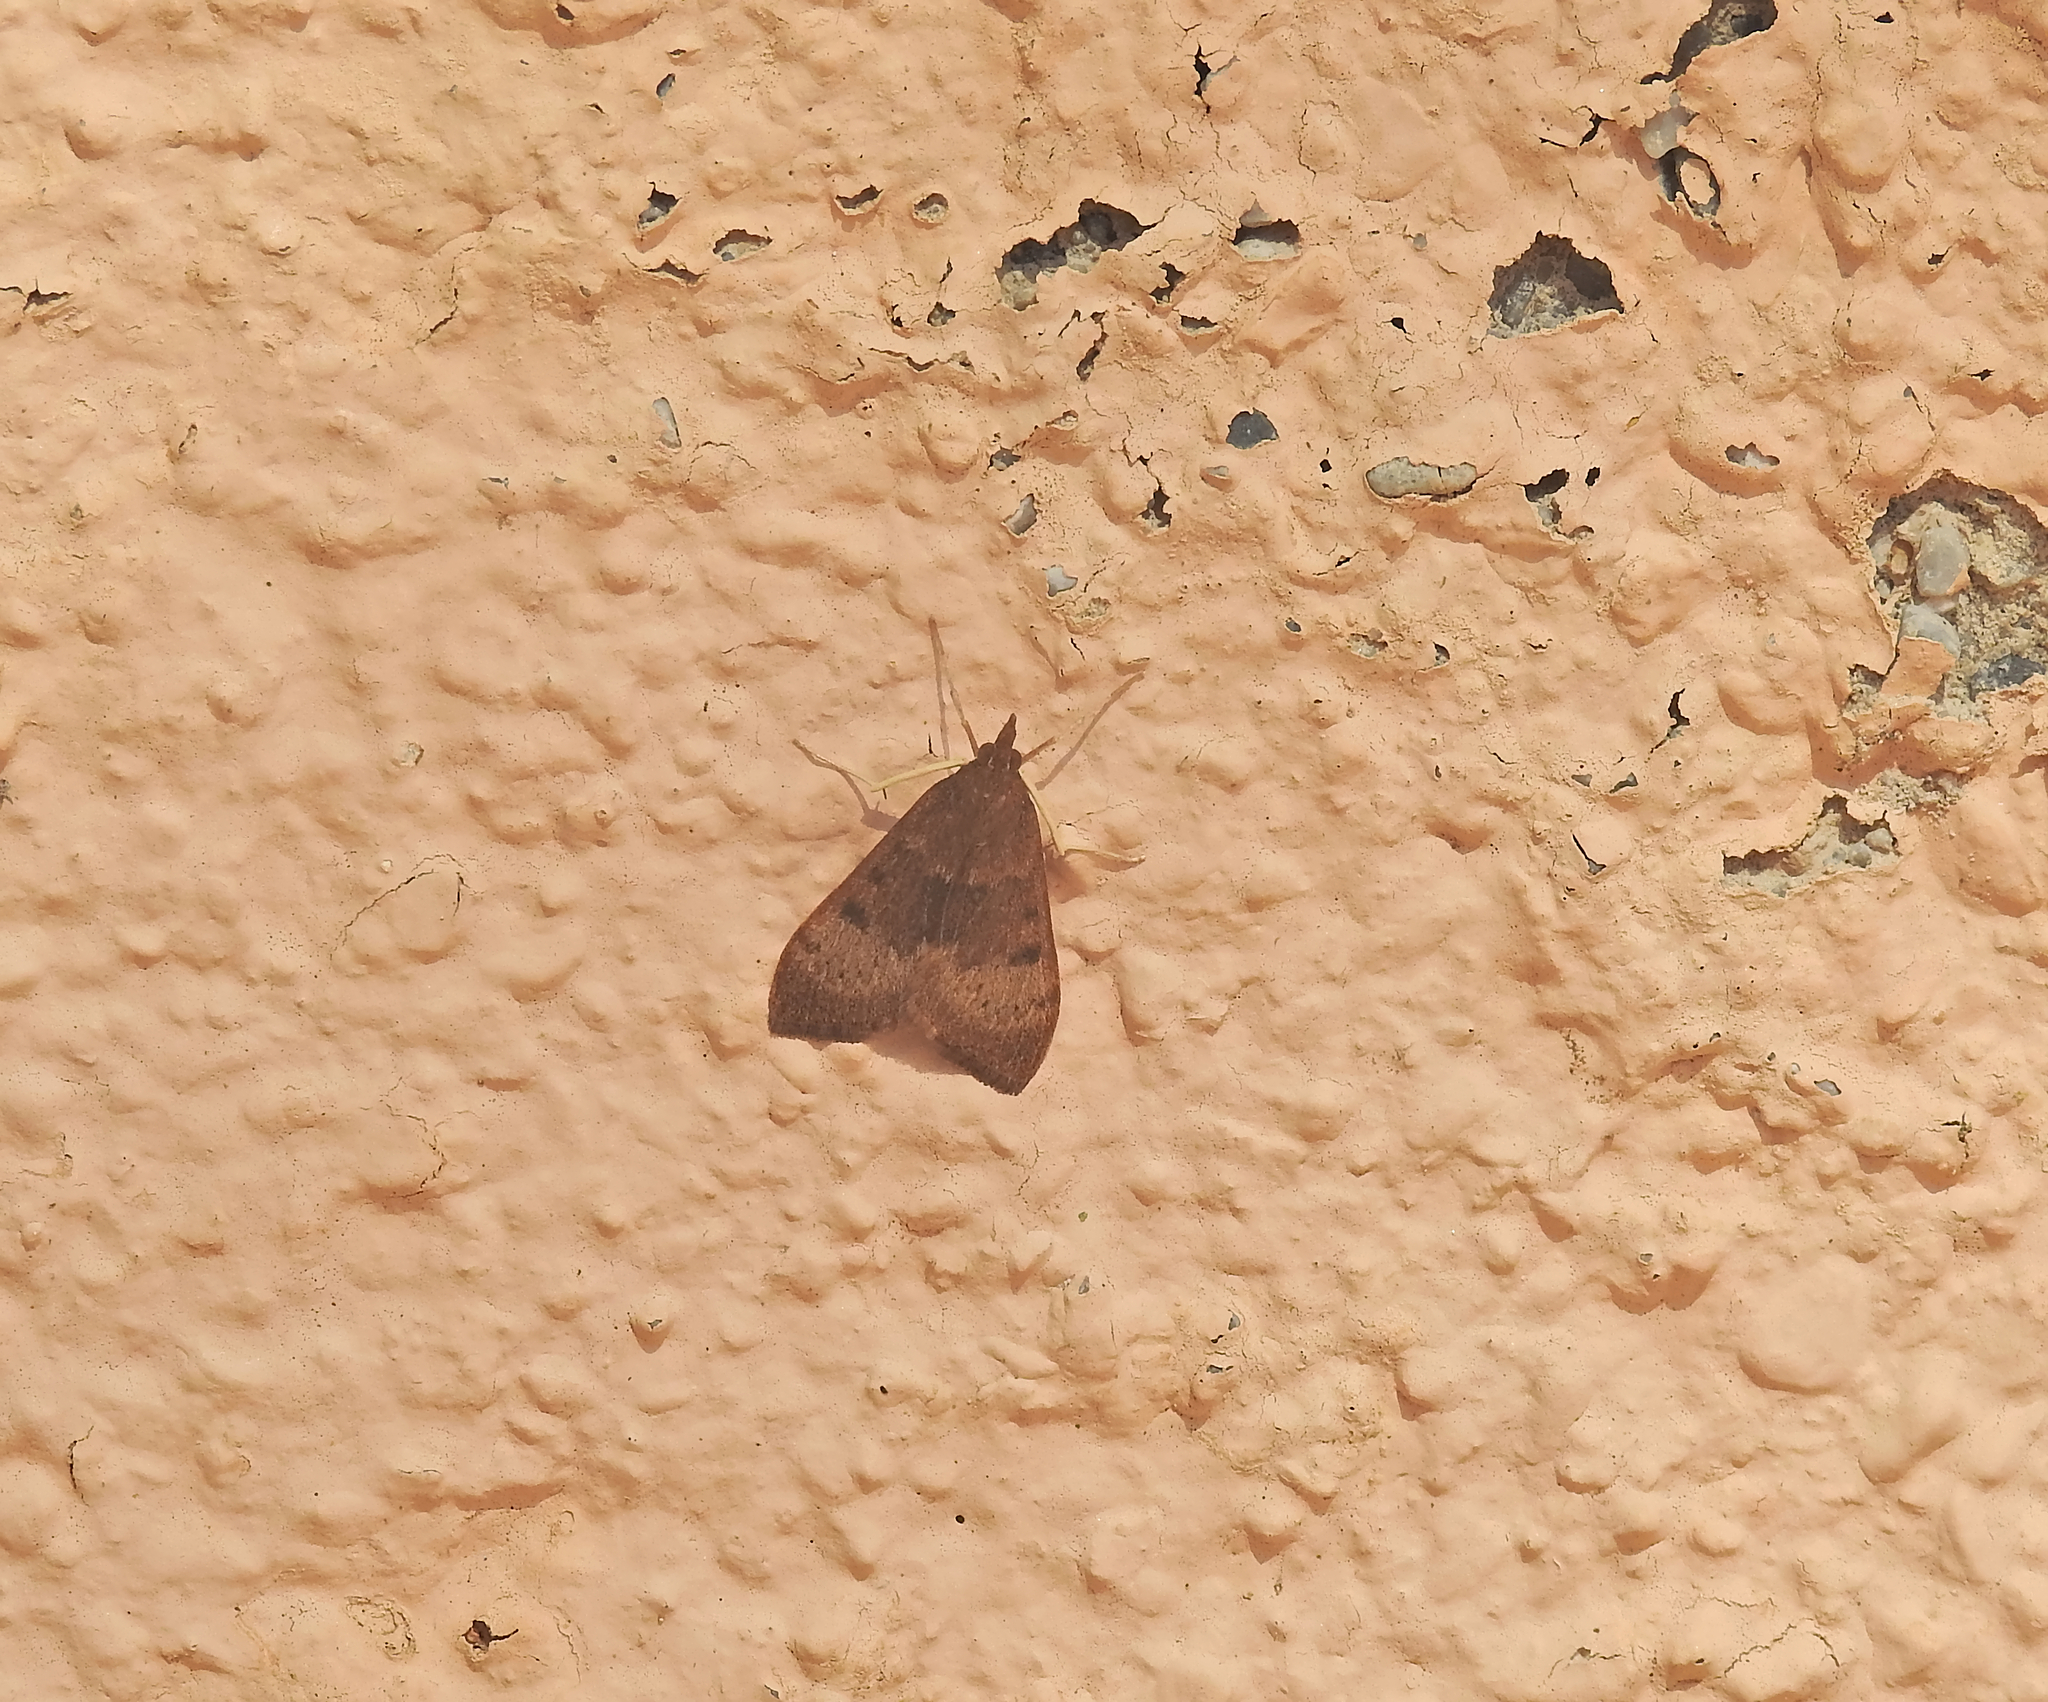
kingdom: Animalia
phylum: Arthropoda
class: Insecta
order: Lepidoptera
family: Crambidae
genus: Uresiphita
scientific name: Uresiphita gilvata
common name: Yellow-underwing pearl
